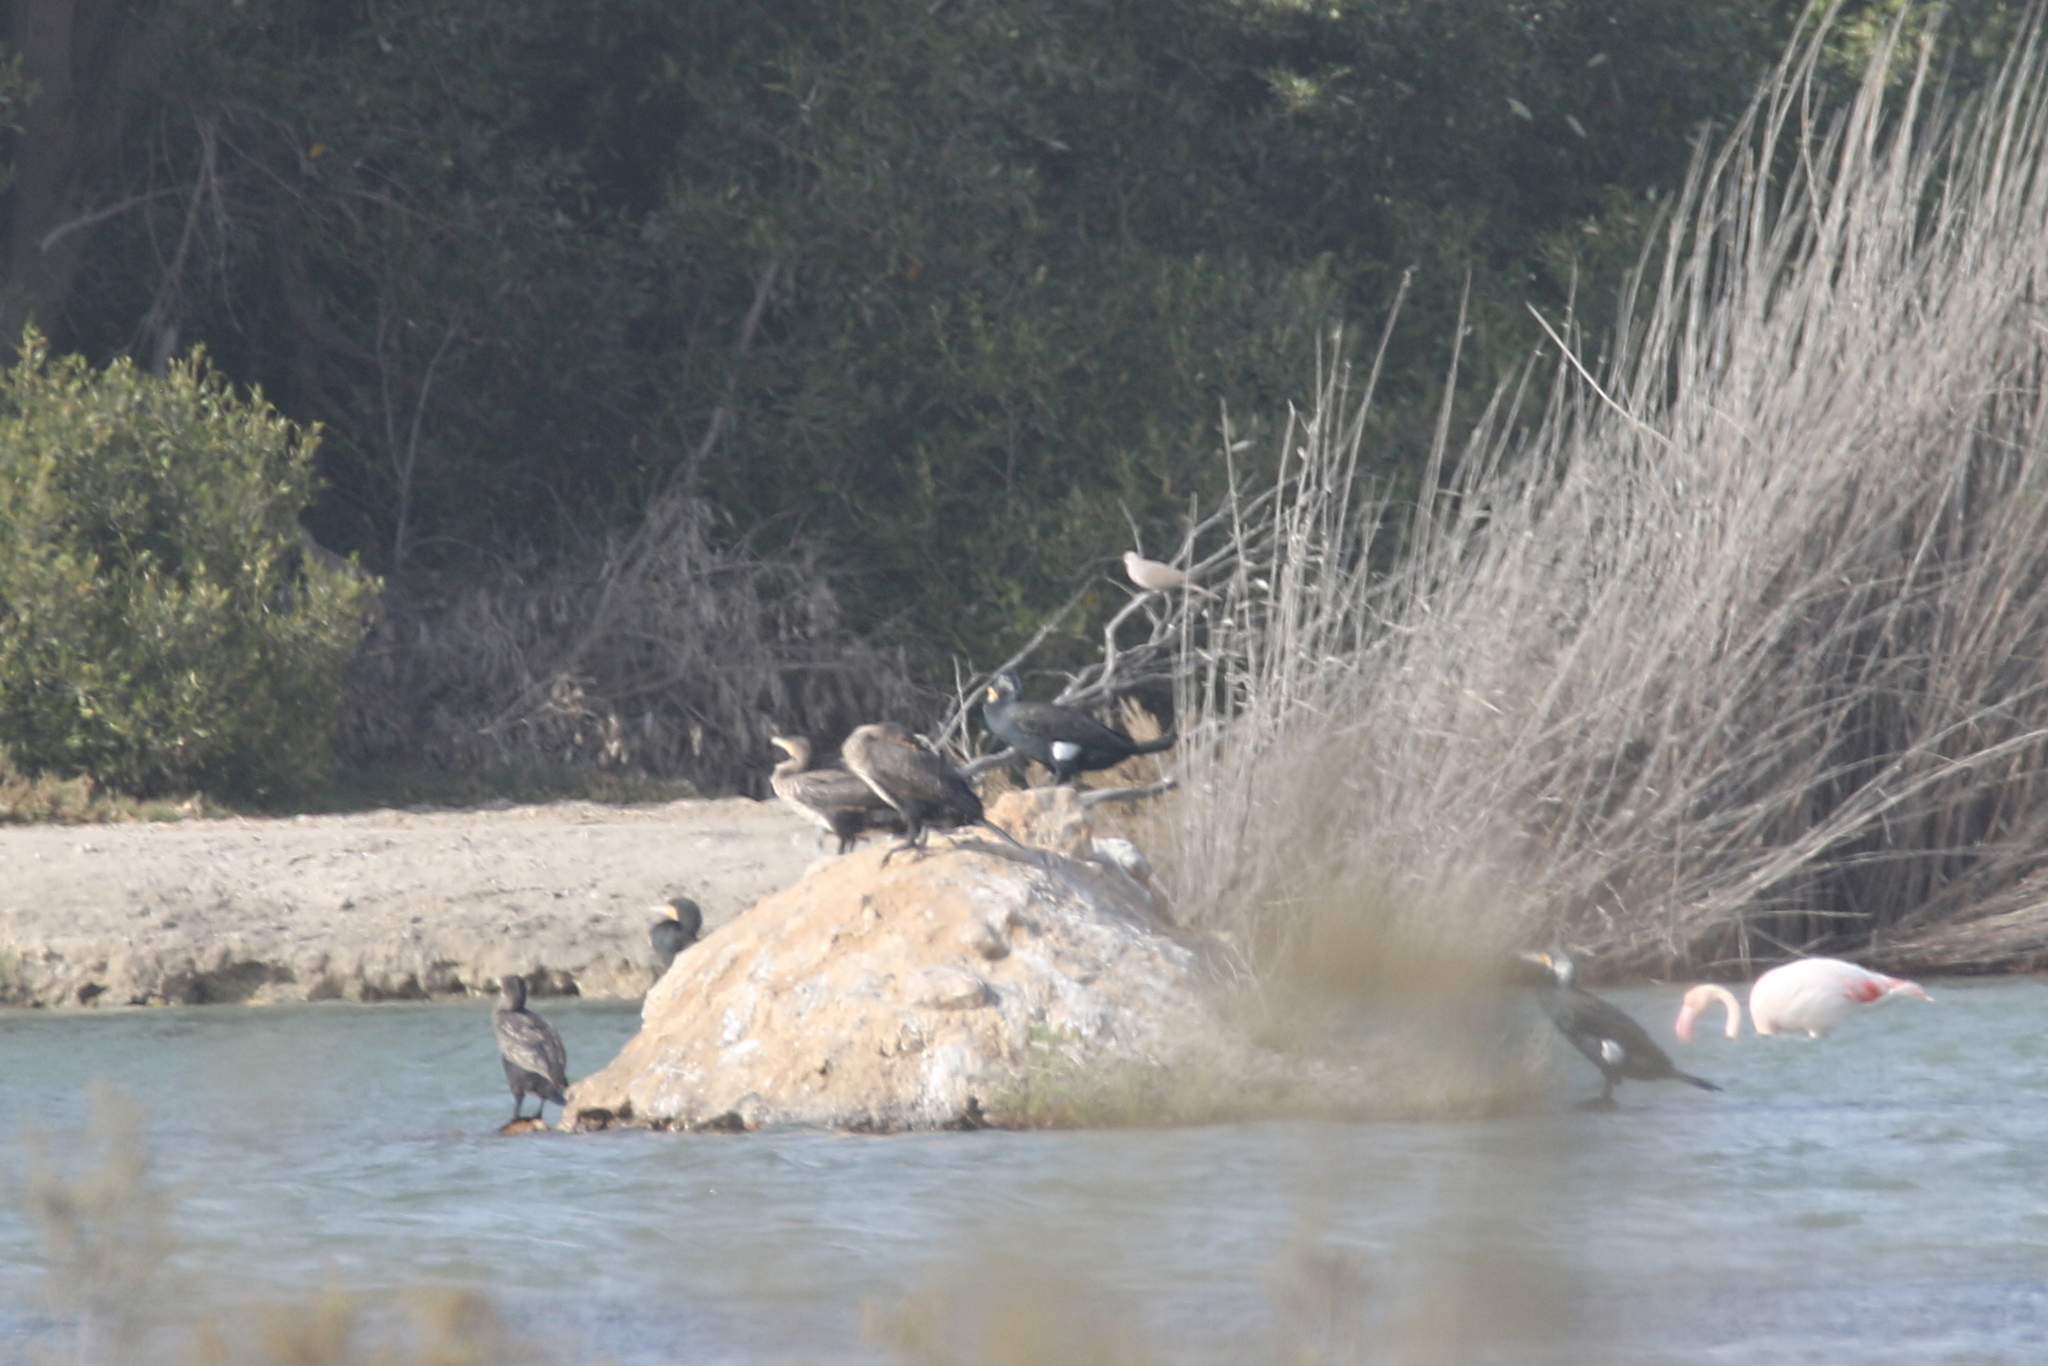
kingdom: Animalia
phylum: Chordata
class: Aves
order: Suliformes
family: Phalacrocoracidae
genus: Phalacrocorax
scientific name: Phalacrocorax carbo
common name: Great cormorant
